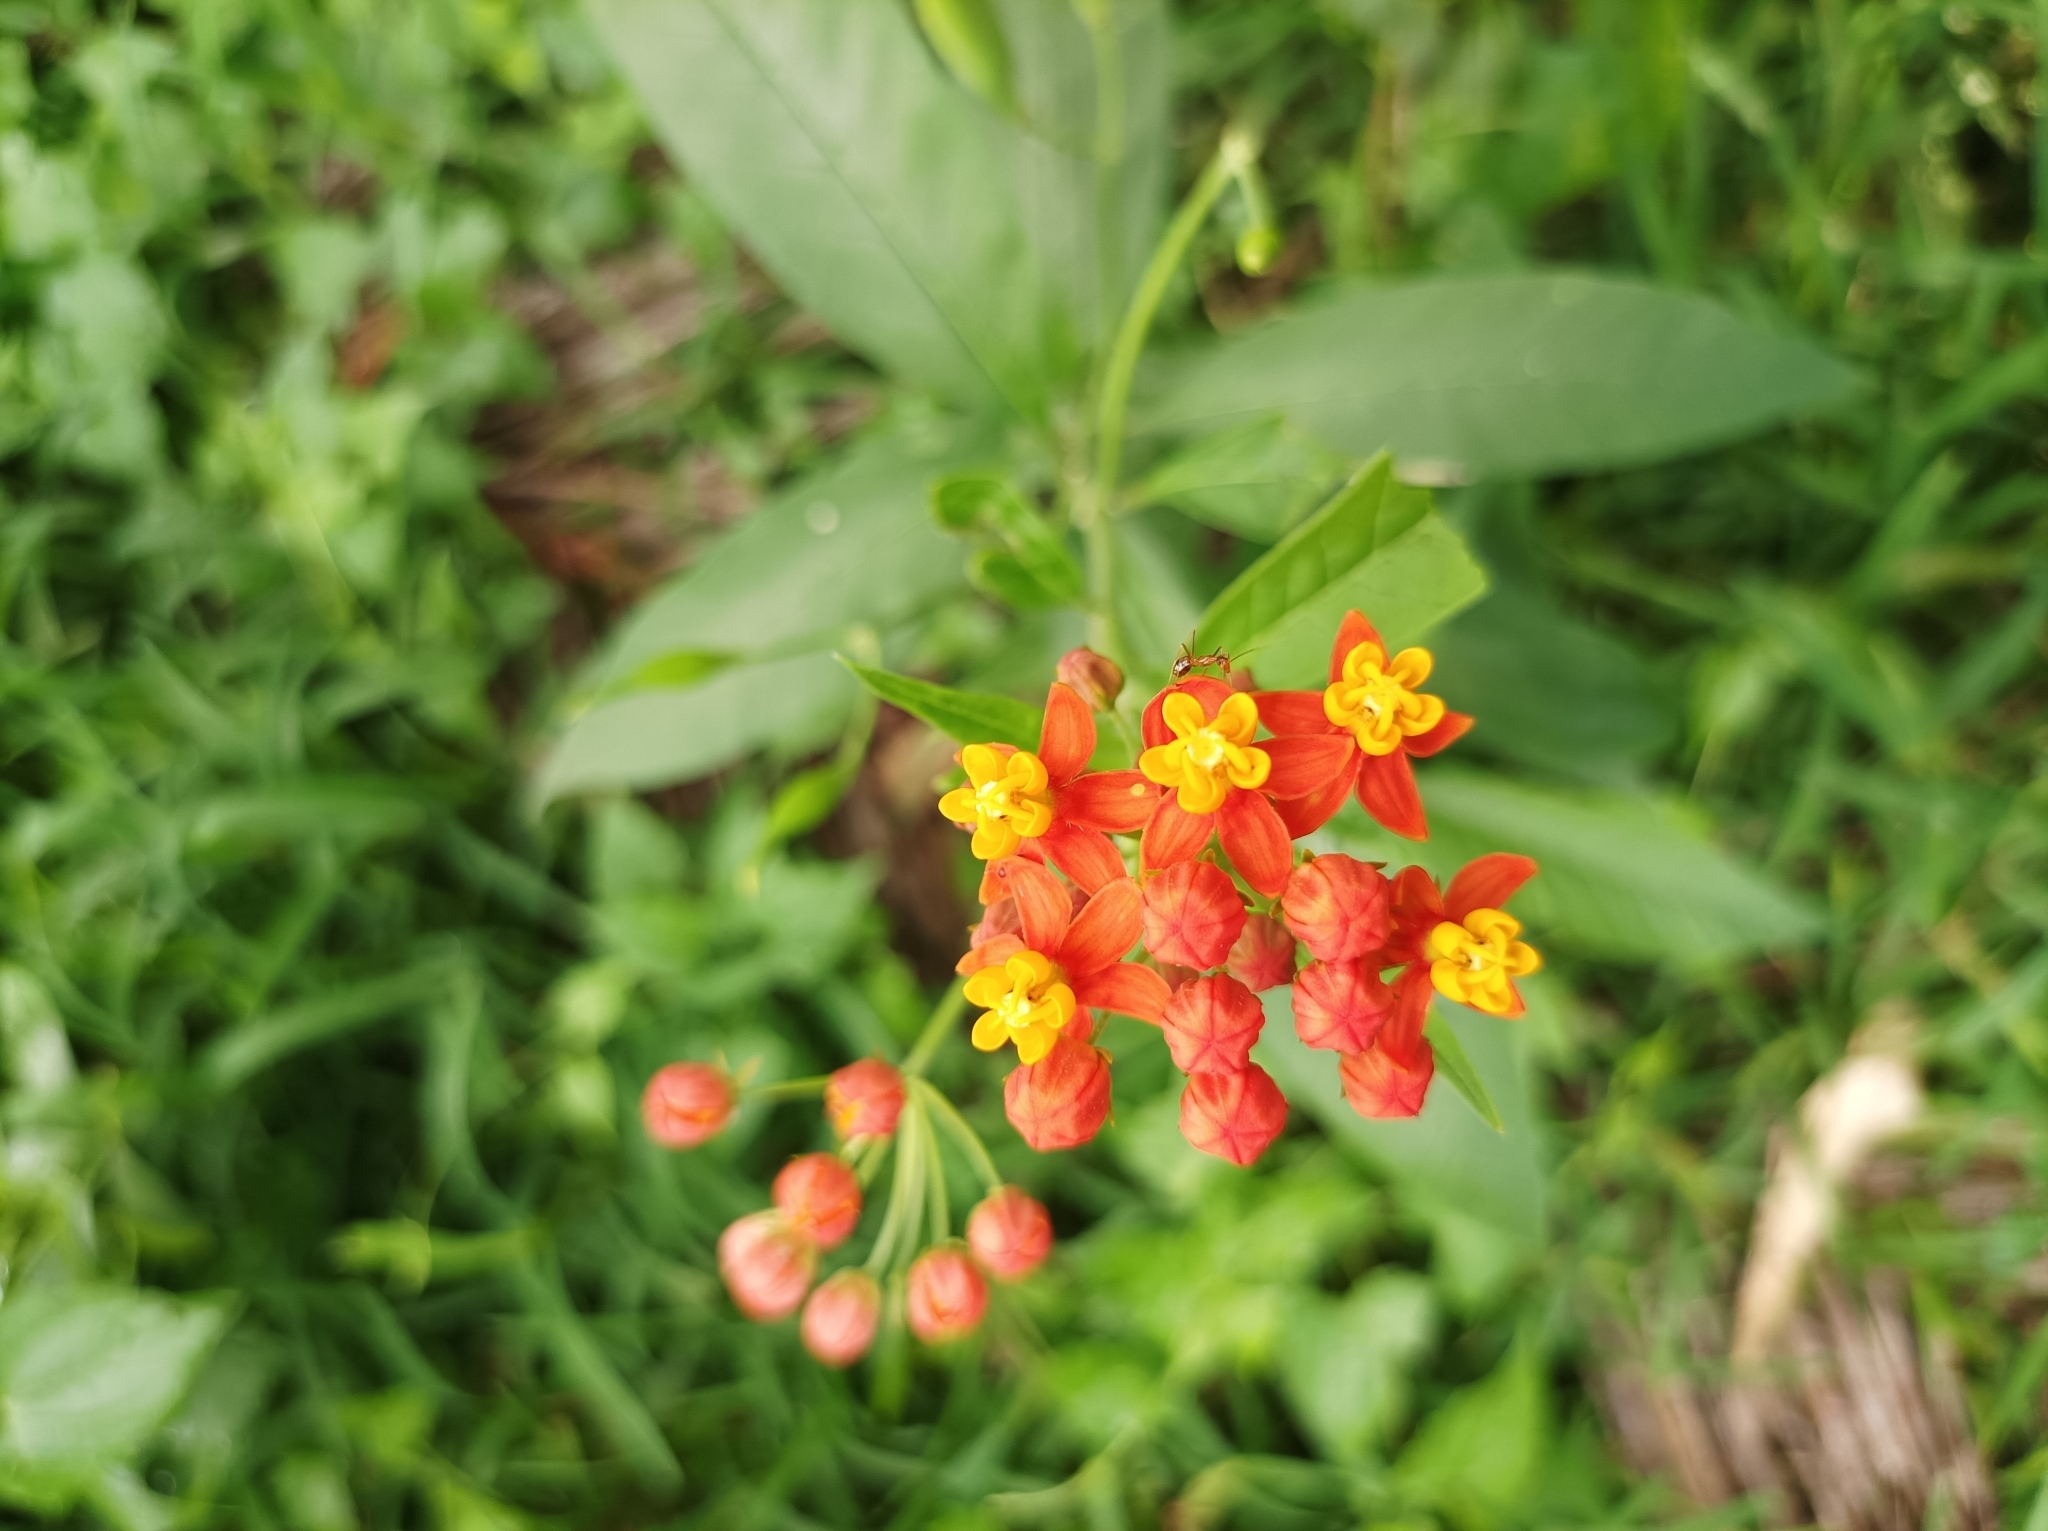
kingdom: Plantae
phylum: Tracheophyta
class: Magnoliopsida
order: Gentianales
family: Apocynaceae
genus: Asclepias
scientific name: Asclepias curassavica
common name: Bloodflower
